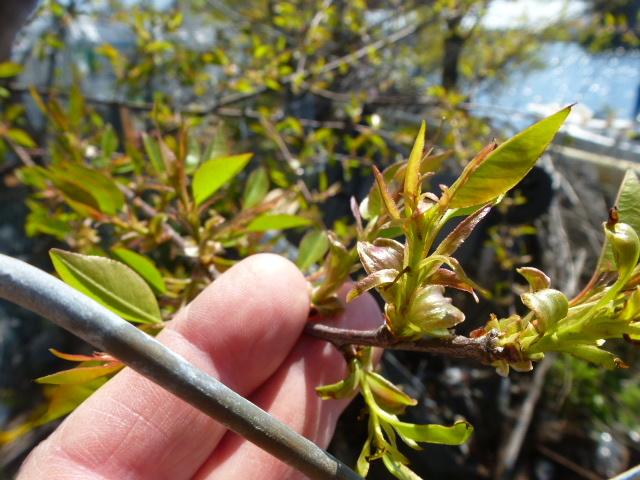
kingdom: Plantae
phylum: Tracheophyta
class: Magnoliopsida
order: Rosales
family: Rosaceae
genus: Prunus
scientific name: Prunus serotina
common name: Black cherry
